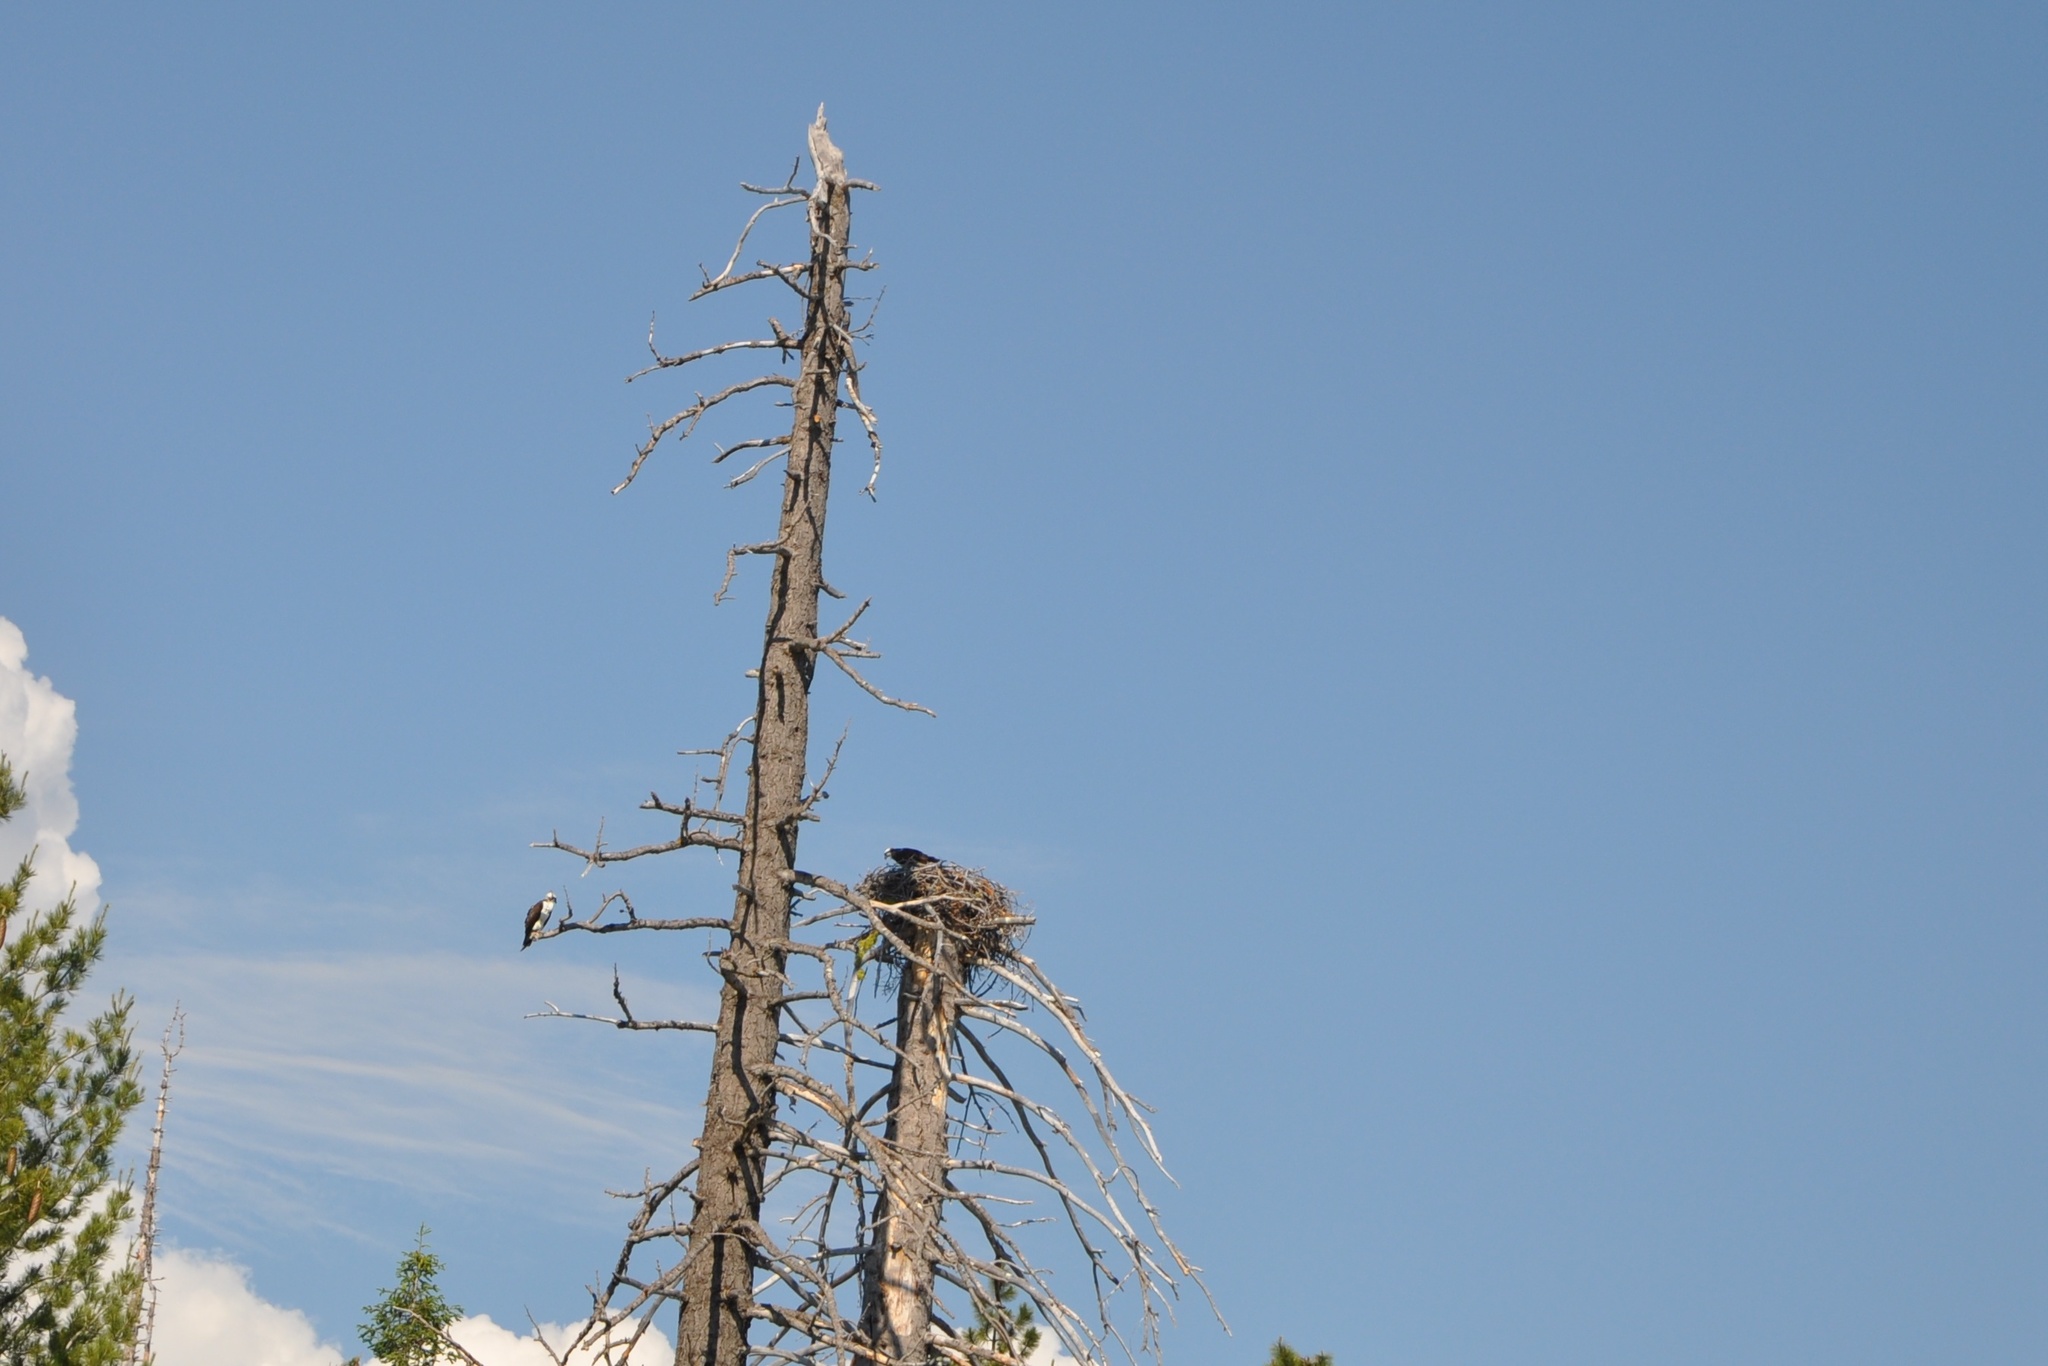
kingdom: Animalia
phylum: Chordata
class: Aves
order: Accipitriformes
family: Pandionidae
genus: Pandion
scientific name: Pandion haliaetus
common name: Osprey
